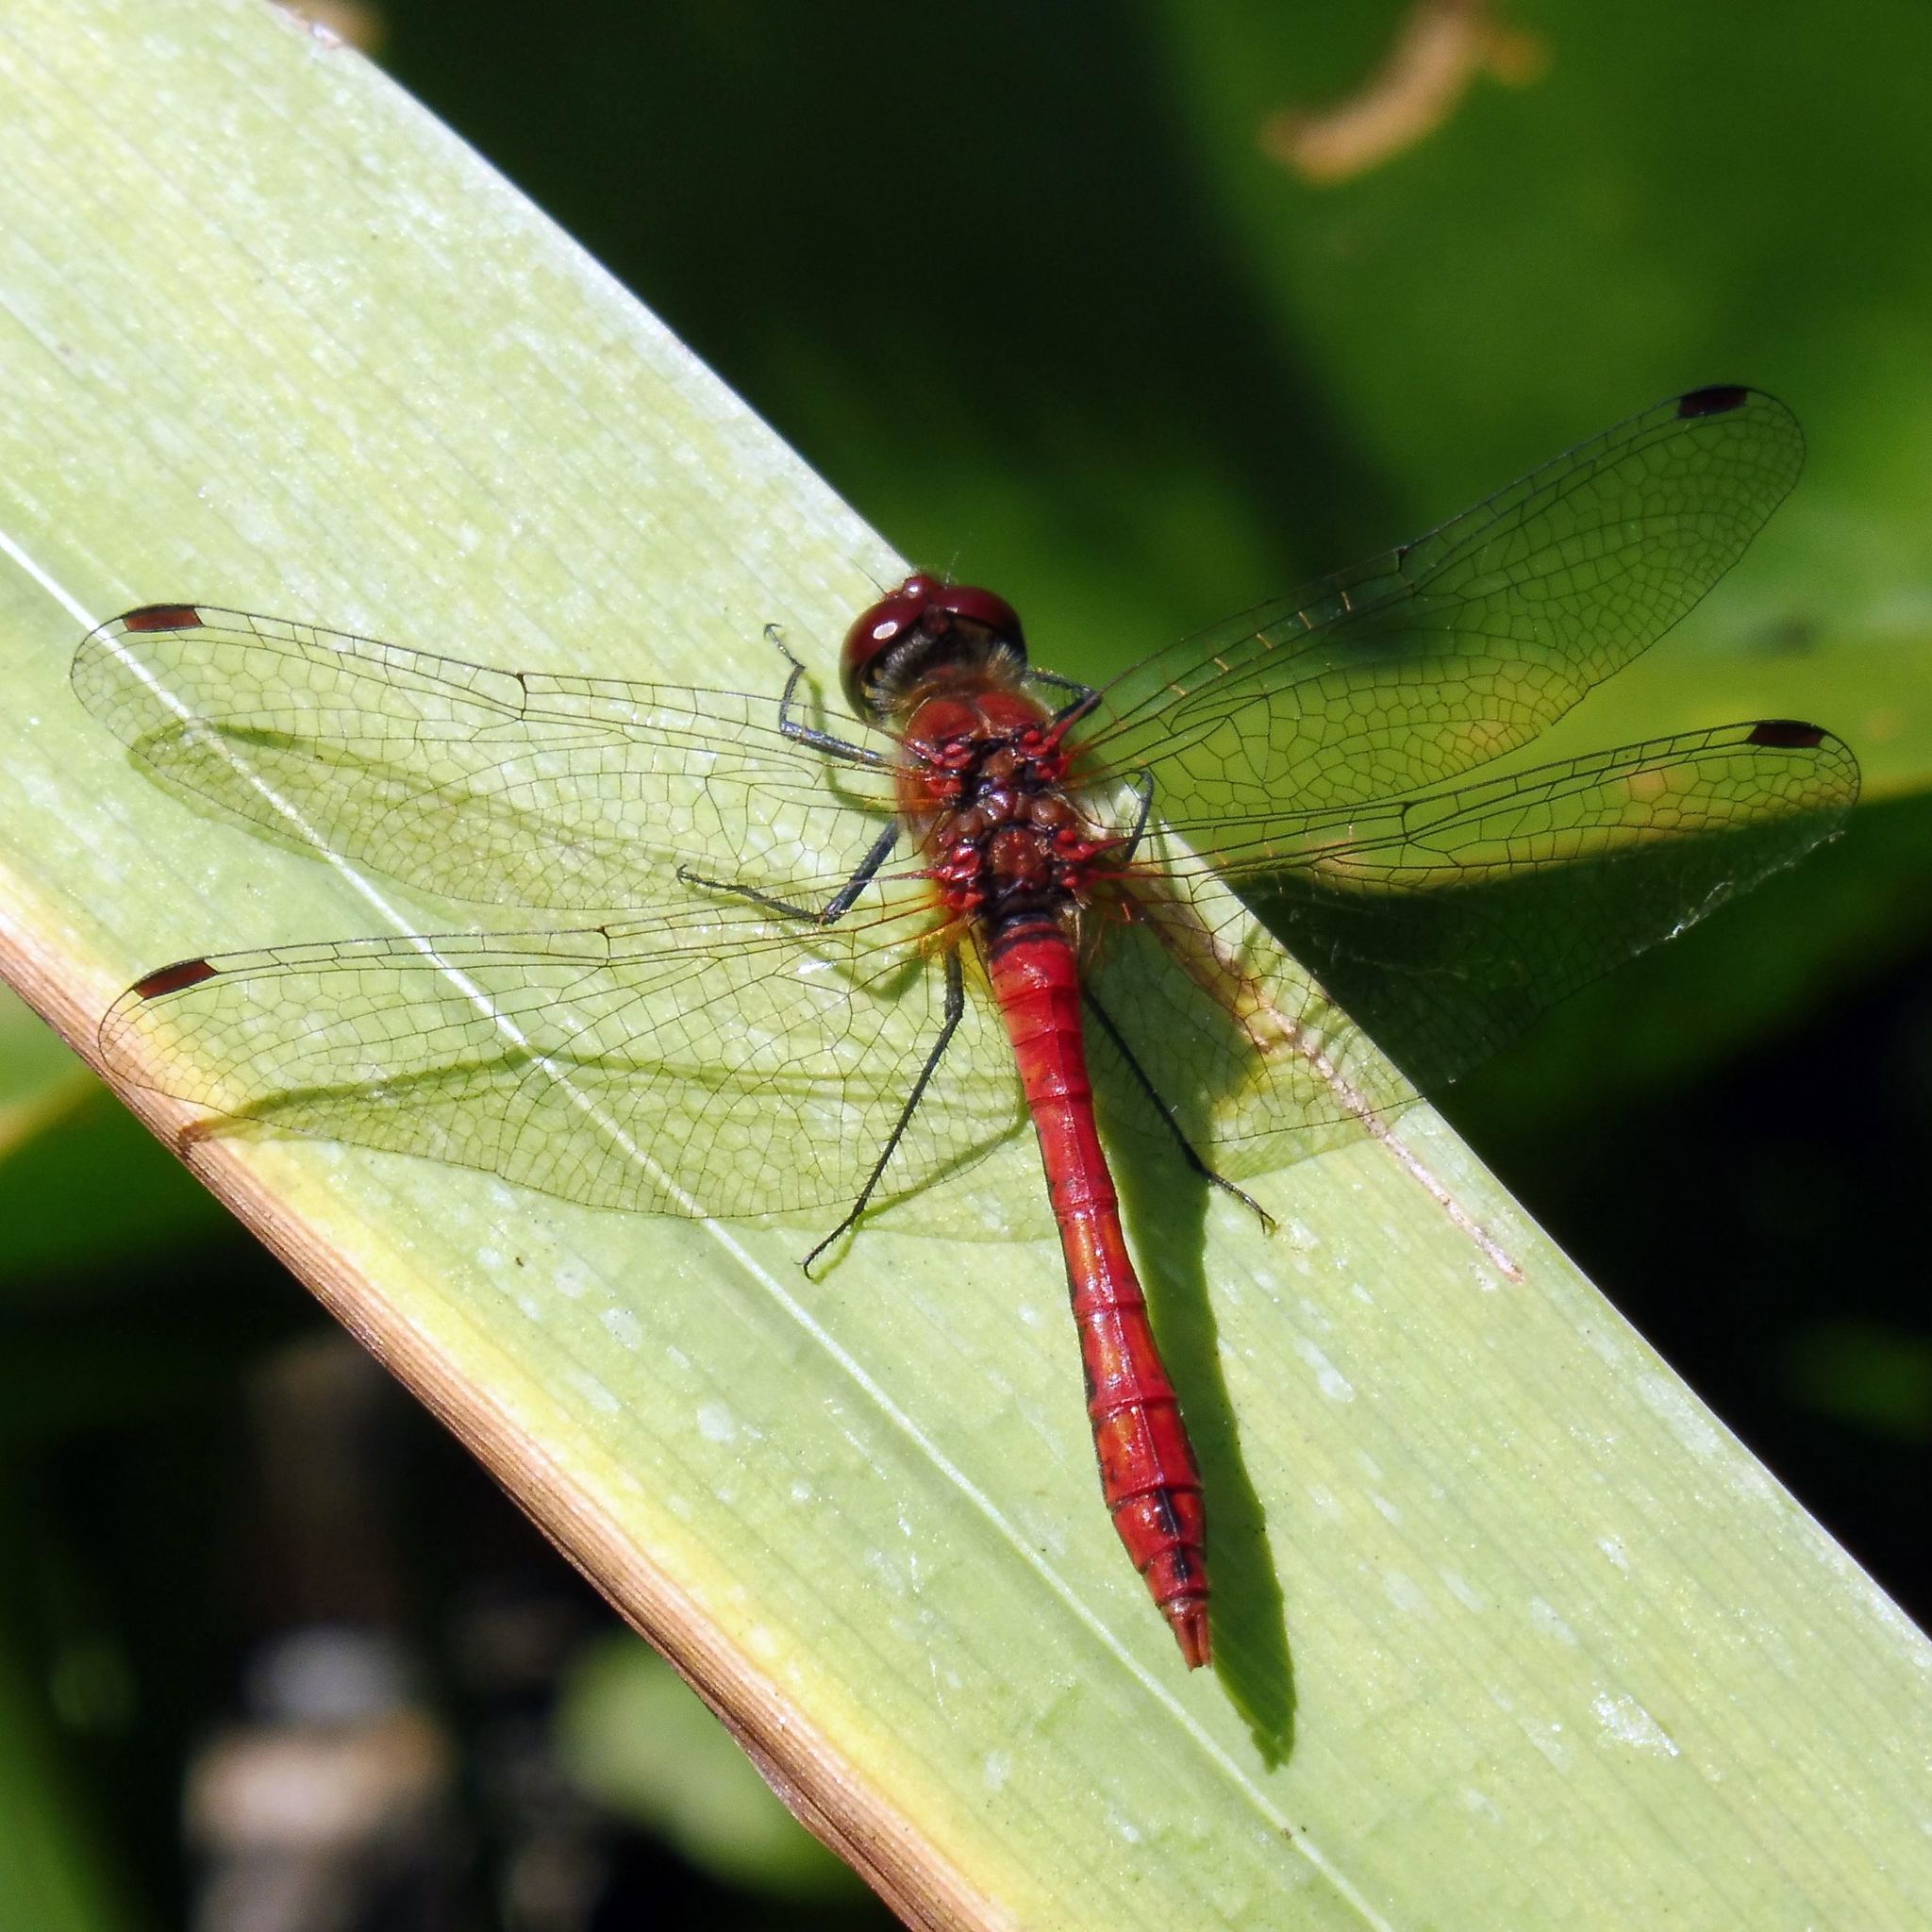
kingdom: Animalia
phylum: Arthropoda
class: Insecta
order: Odonata
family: Libellulidae
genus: Sympetrum
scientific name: Sympetrum sanguineum
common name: Ruddy darter
